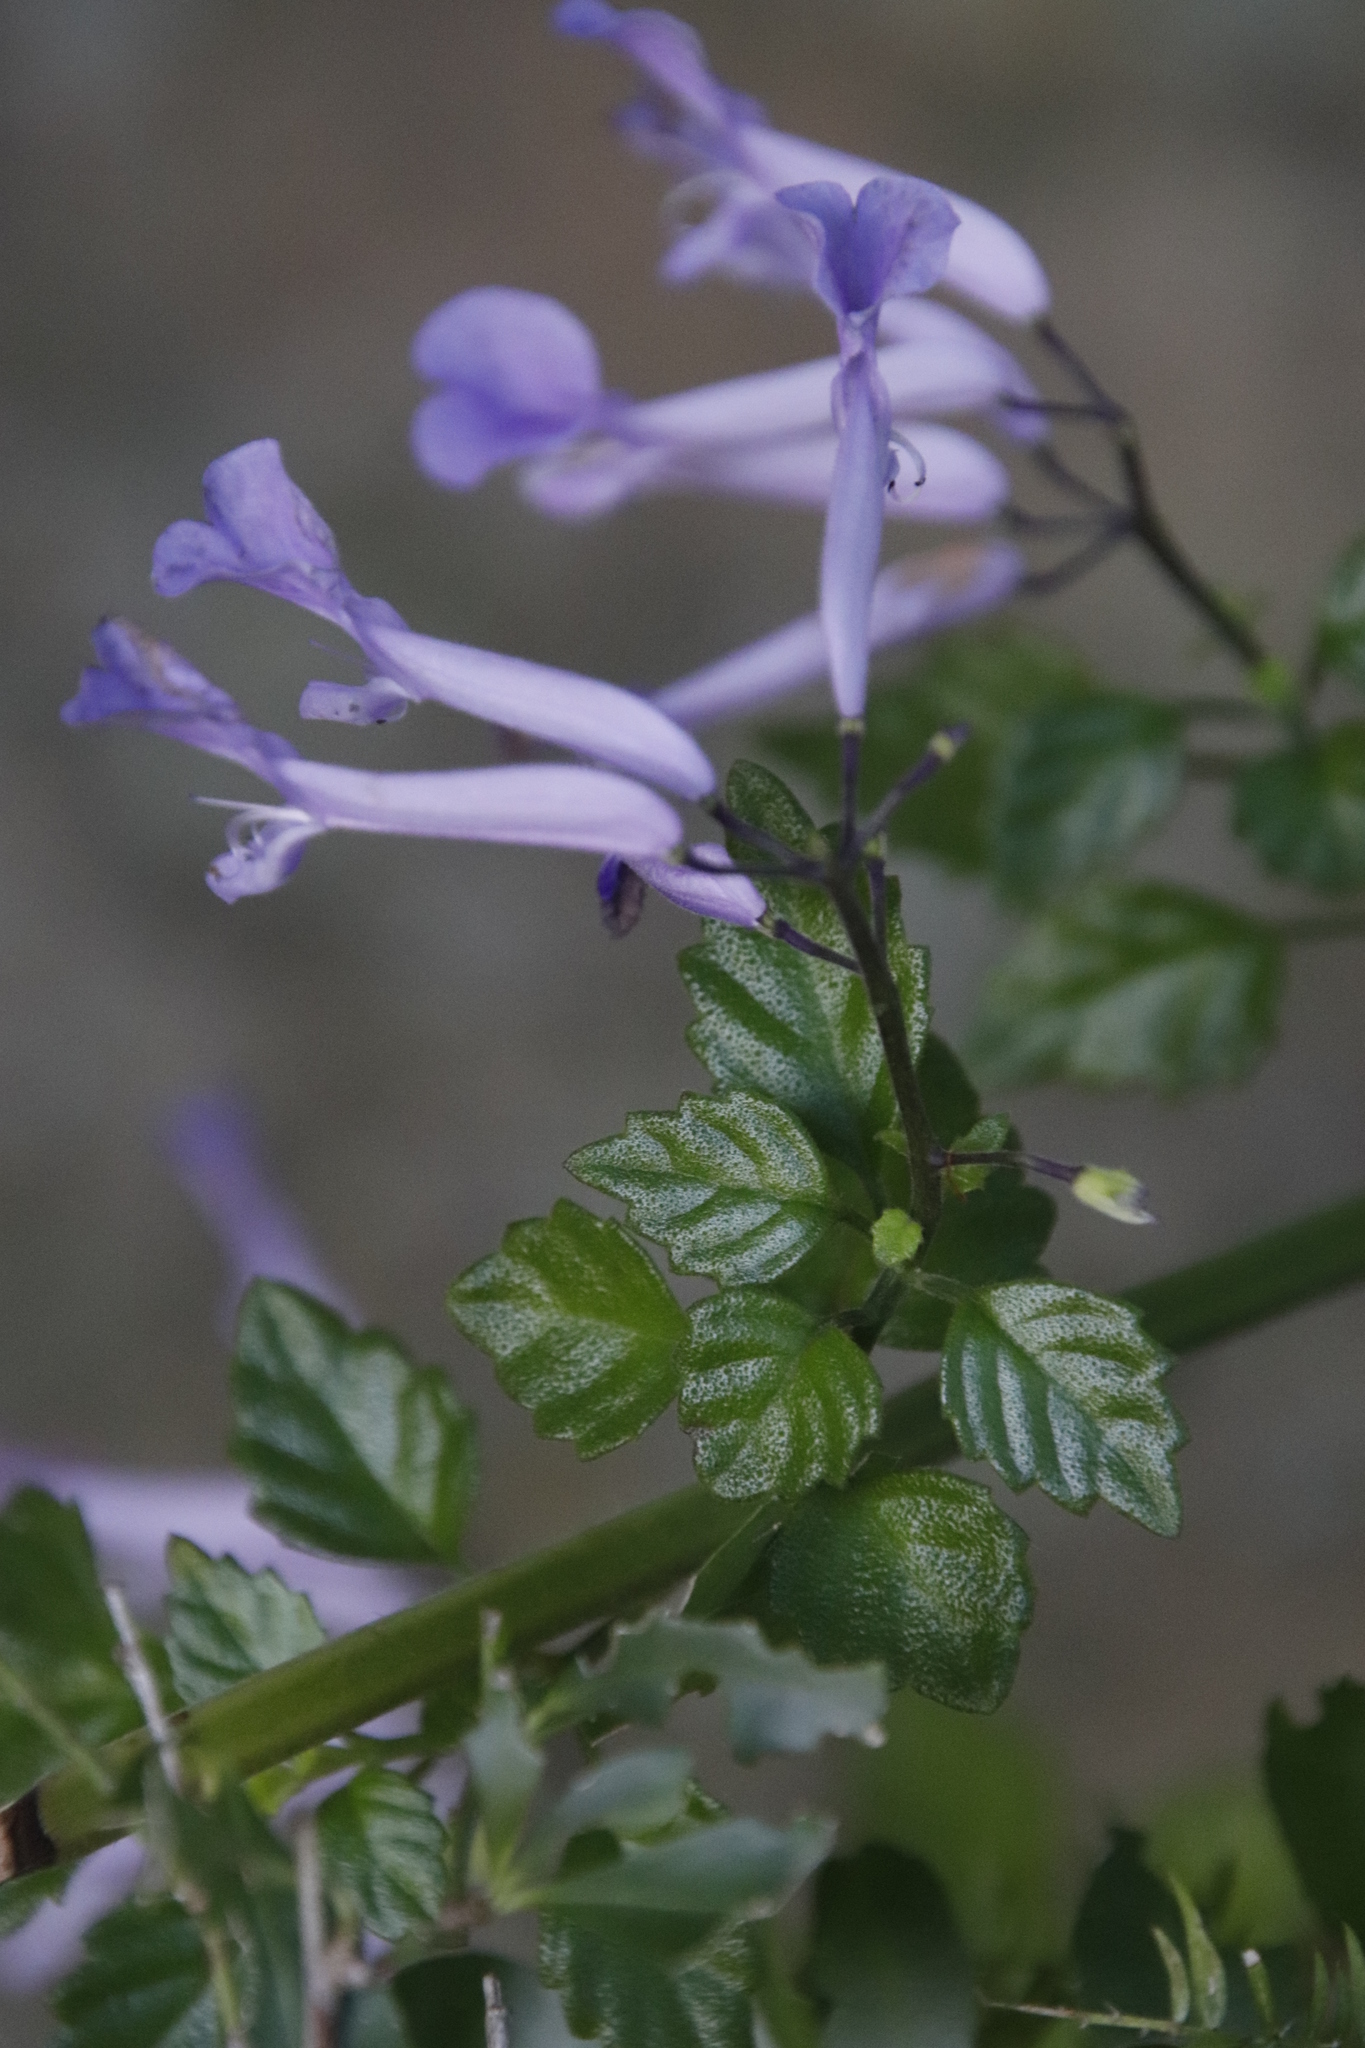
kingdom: Plantae
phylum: Tracheophyta
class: Magnoliopsida
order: Lamiales
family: Lamiaceae
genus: Plectranthus
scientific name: Plectranthus saccatus
